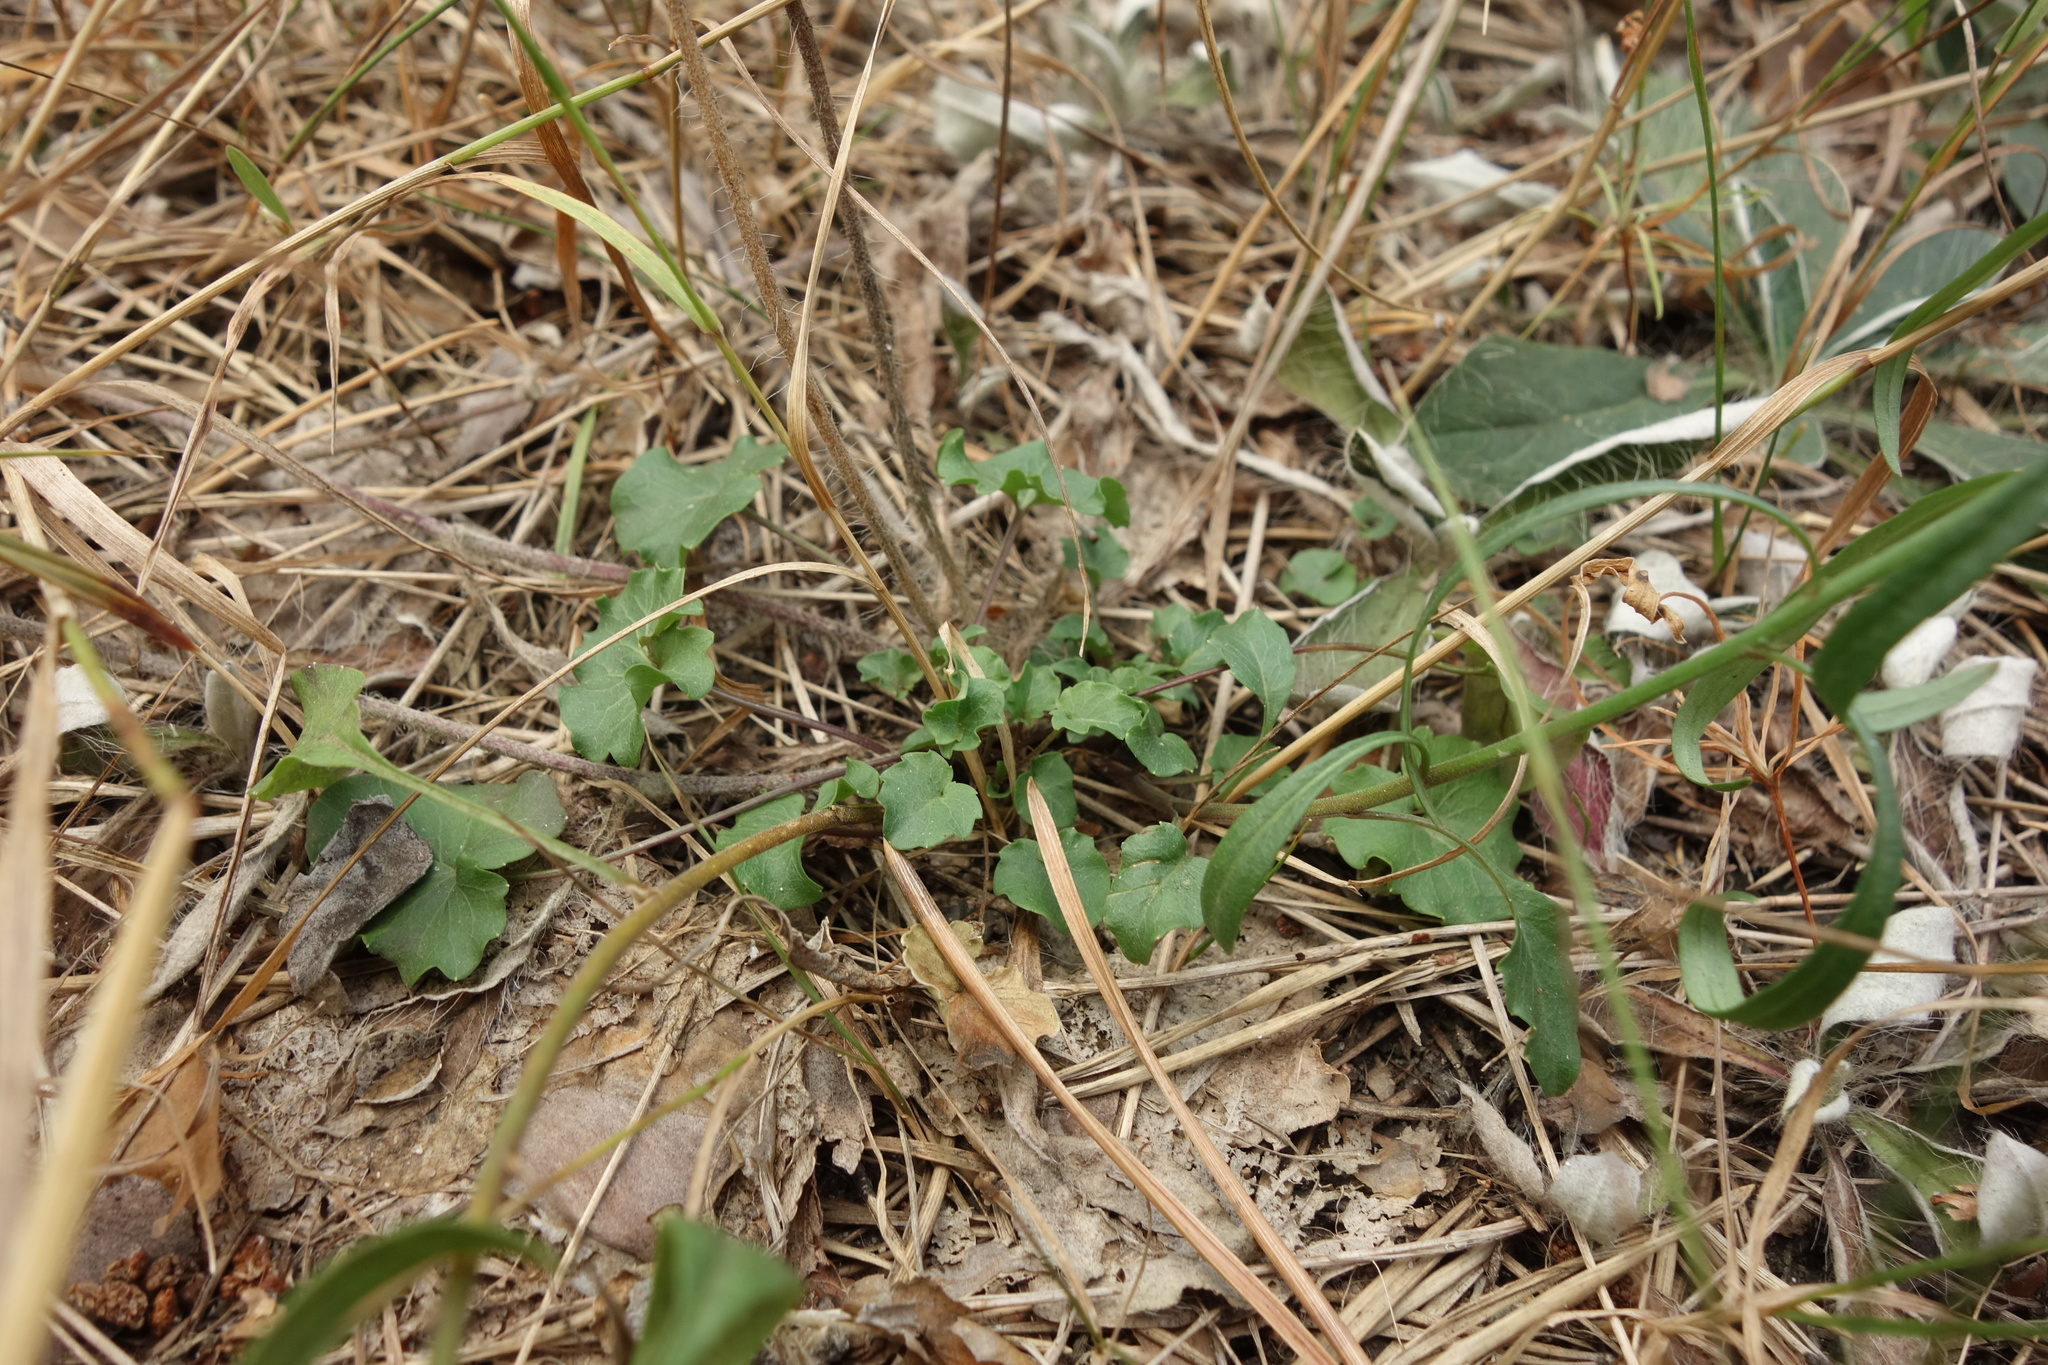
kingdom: Plantae
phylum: Tracheophyta
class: Magnoliopsida
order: Asterales
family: Campanulaceae
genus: Campanula
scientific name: Campanula rotundifolia
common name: Harebell
